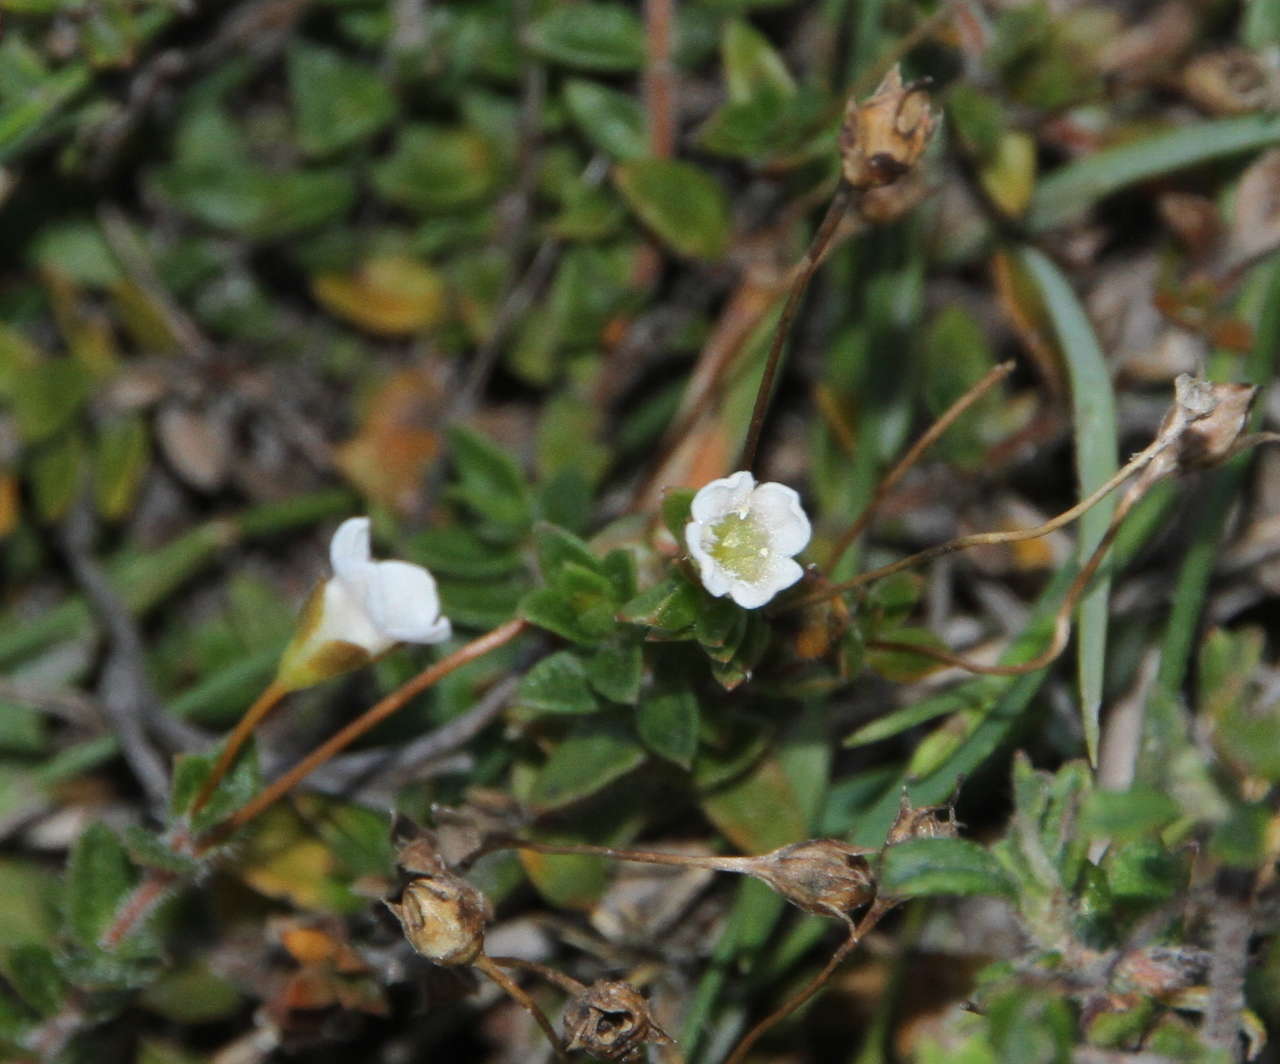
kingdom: Plantae
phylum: Tracheophyta
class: Magnoliopsida
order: Gentianales
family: Loganiaceae
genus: Mitrasacme
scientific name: Mitrasacme pilosa
